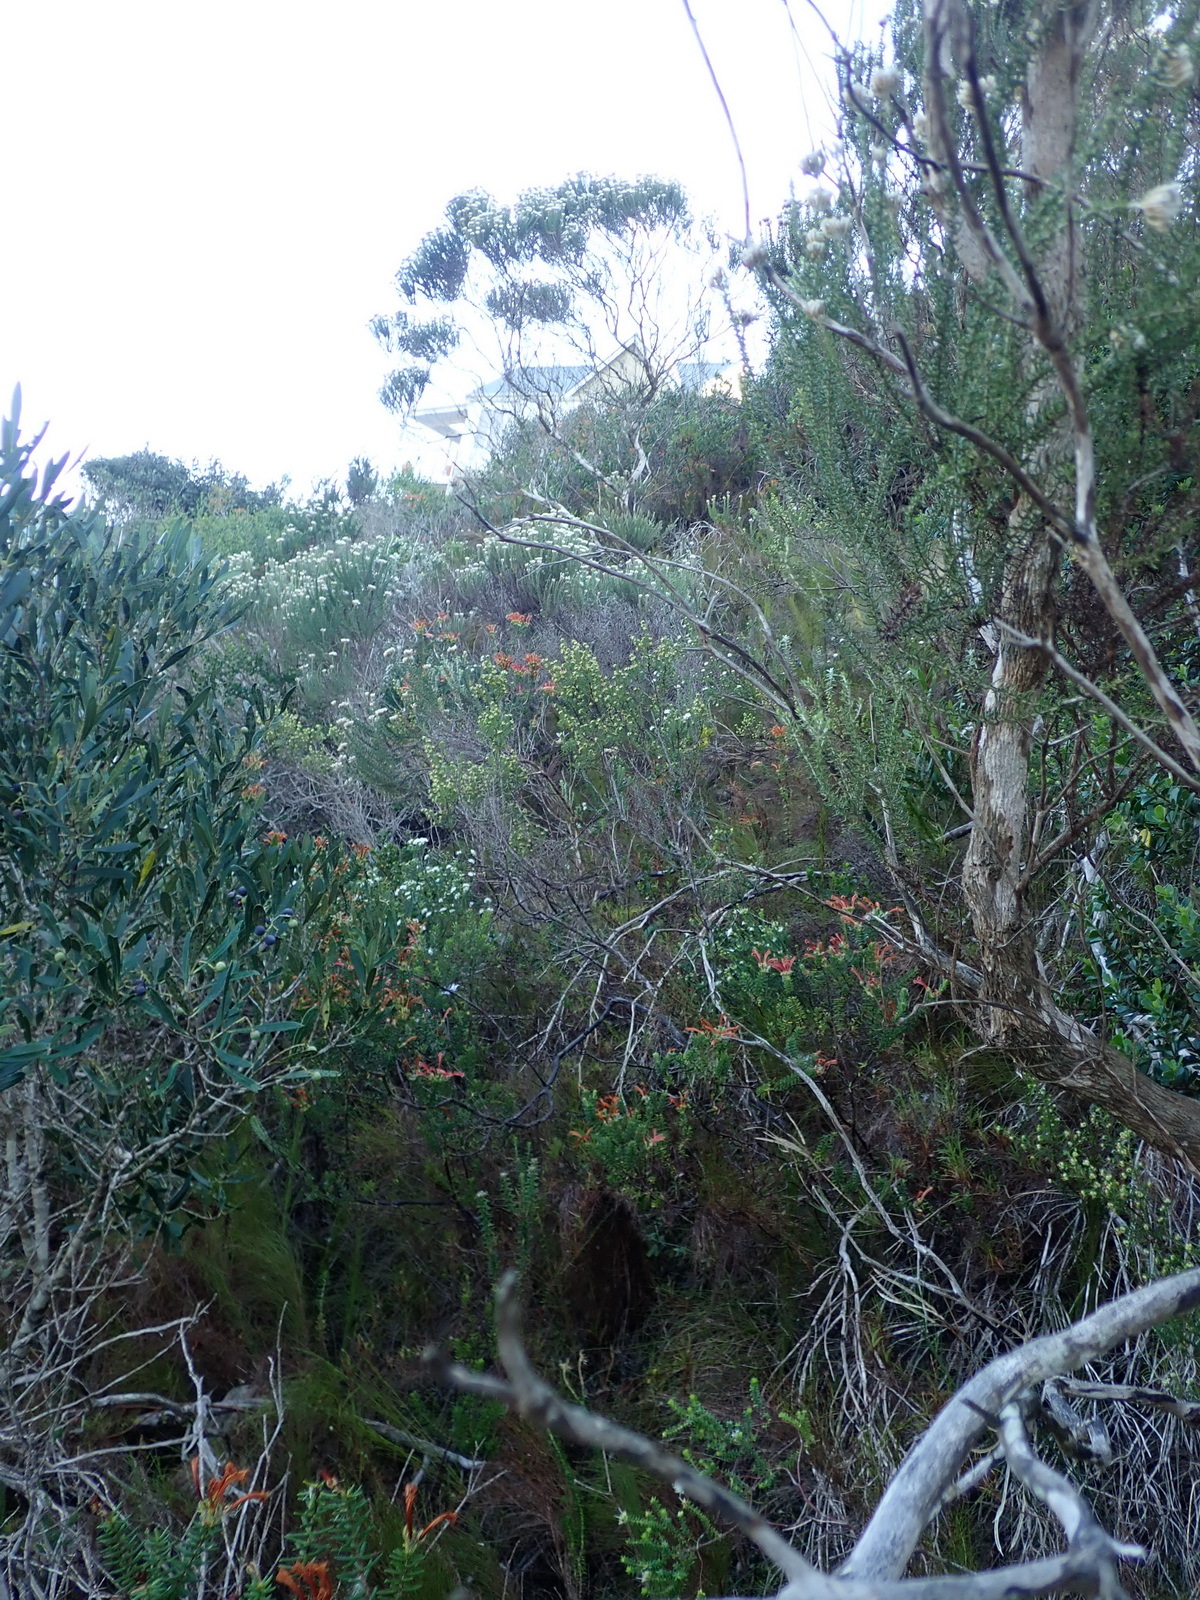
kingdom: Plantae
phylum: Tracheophyta
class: Magnoliopsida
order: Ericales
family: Ericaceae
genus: Erica
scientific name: Erica glumiflora
